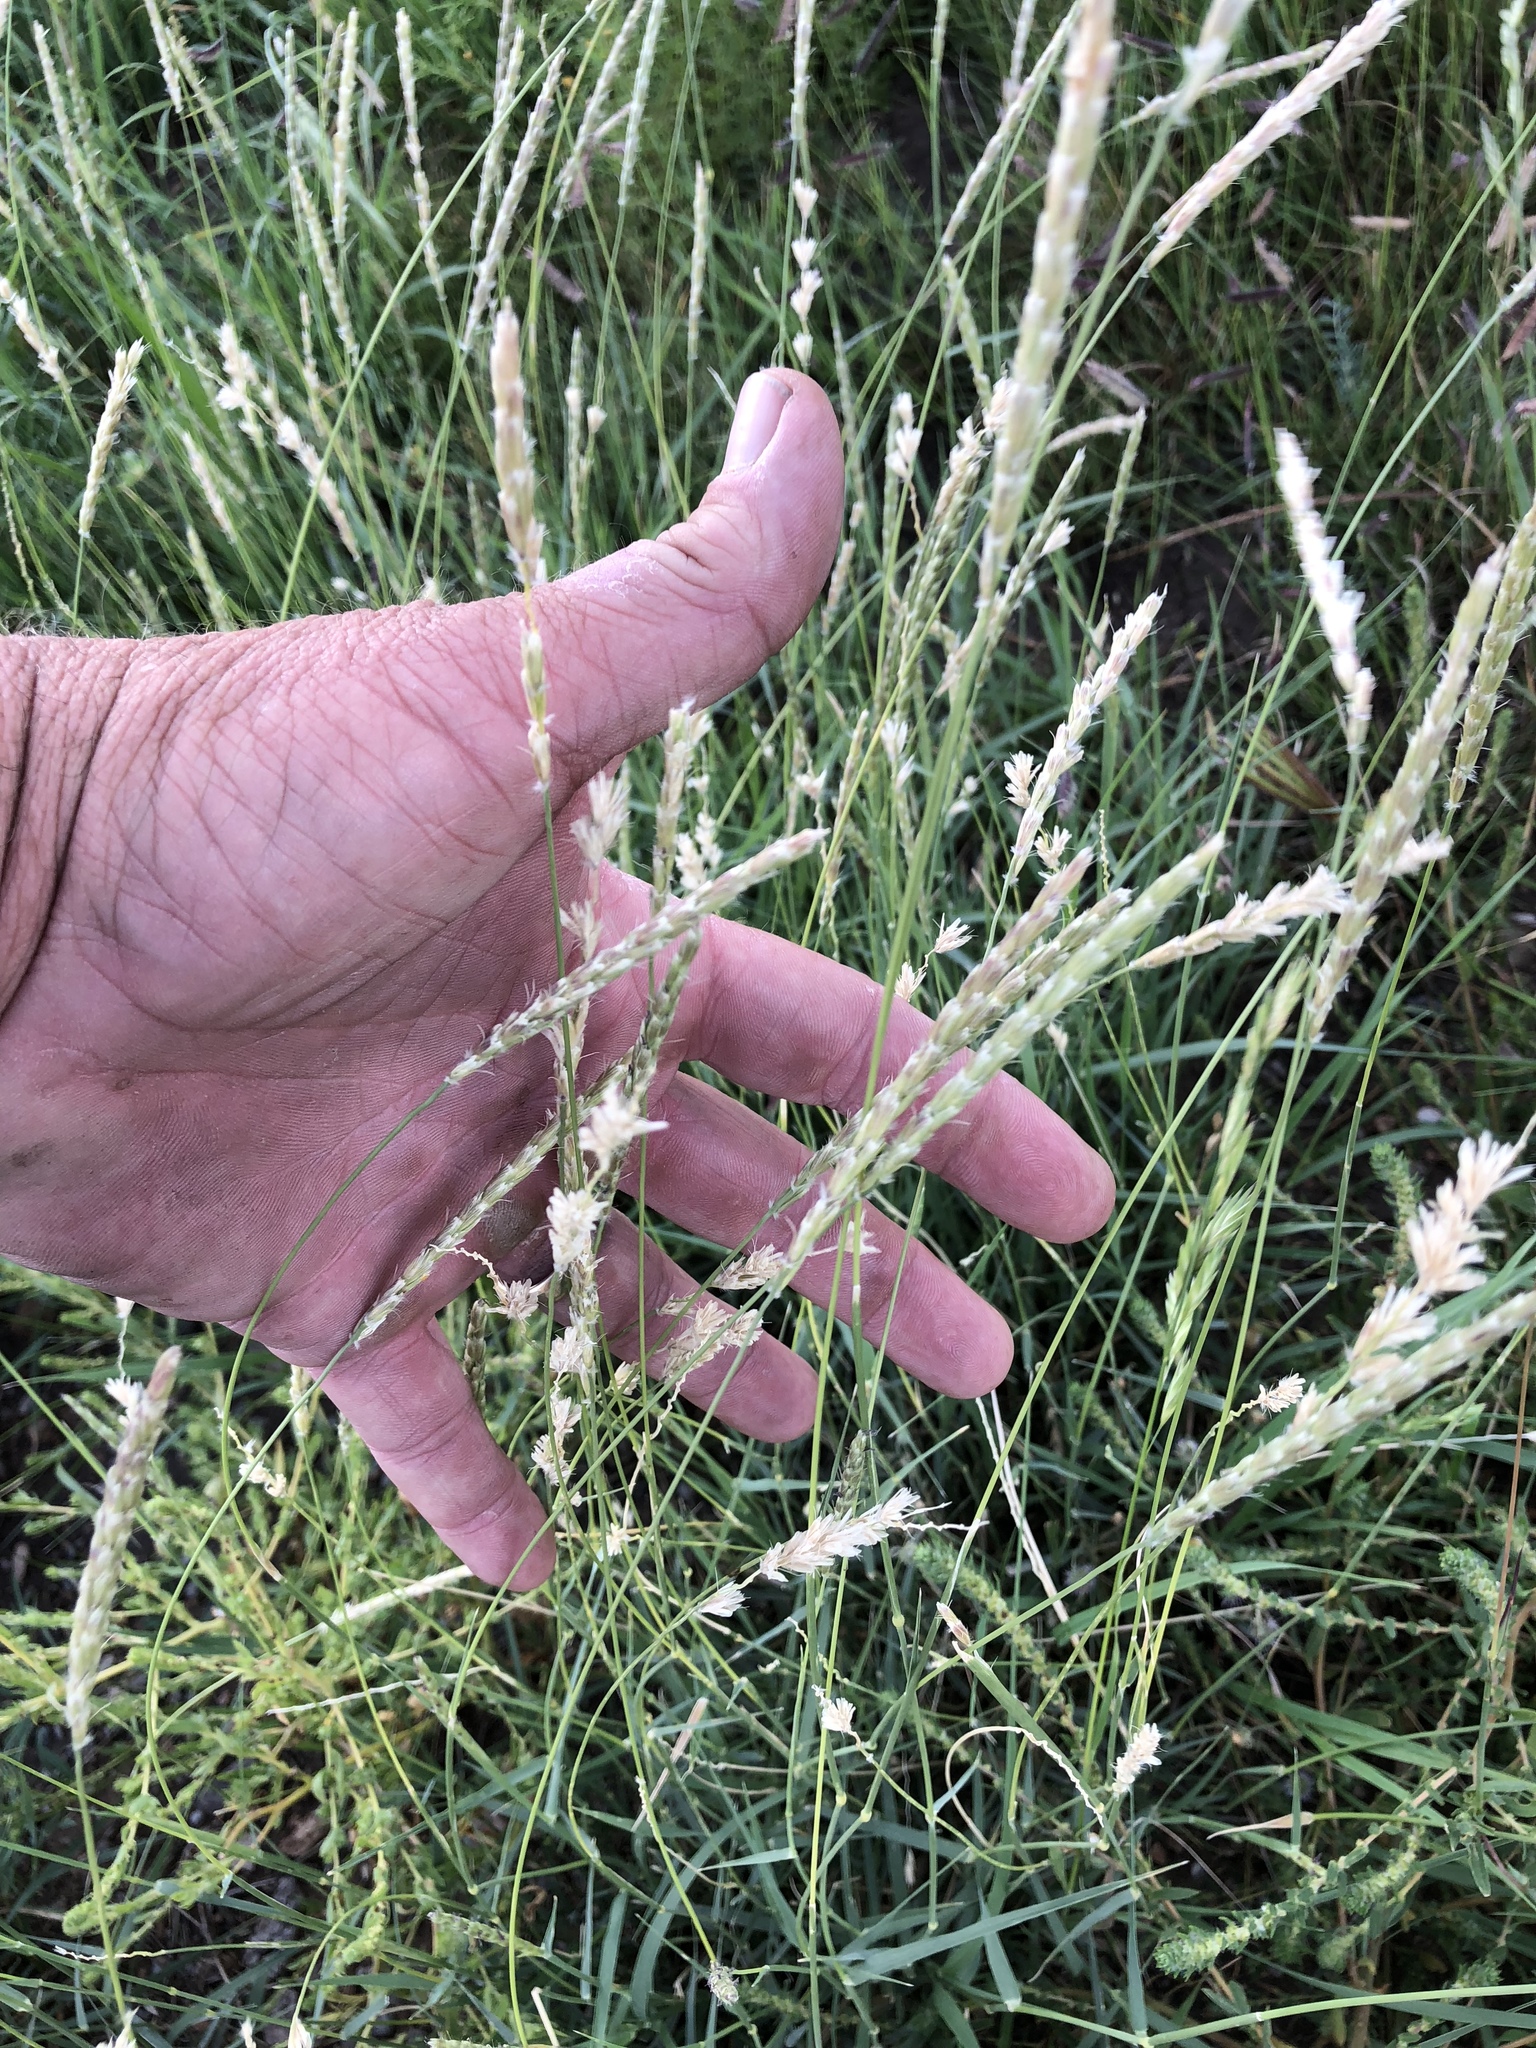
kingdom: Plantae
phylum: Tracheophyta
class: Liliopsida
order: Poales
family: Poaceae
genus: Hilaria
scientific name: Hilaria mutica
